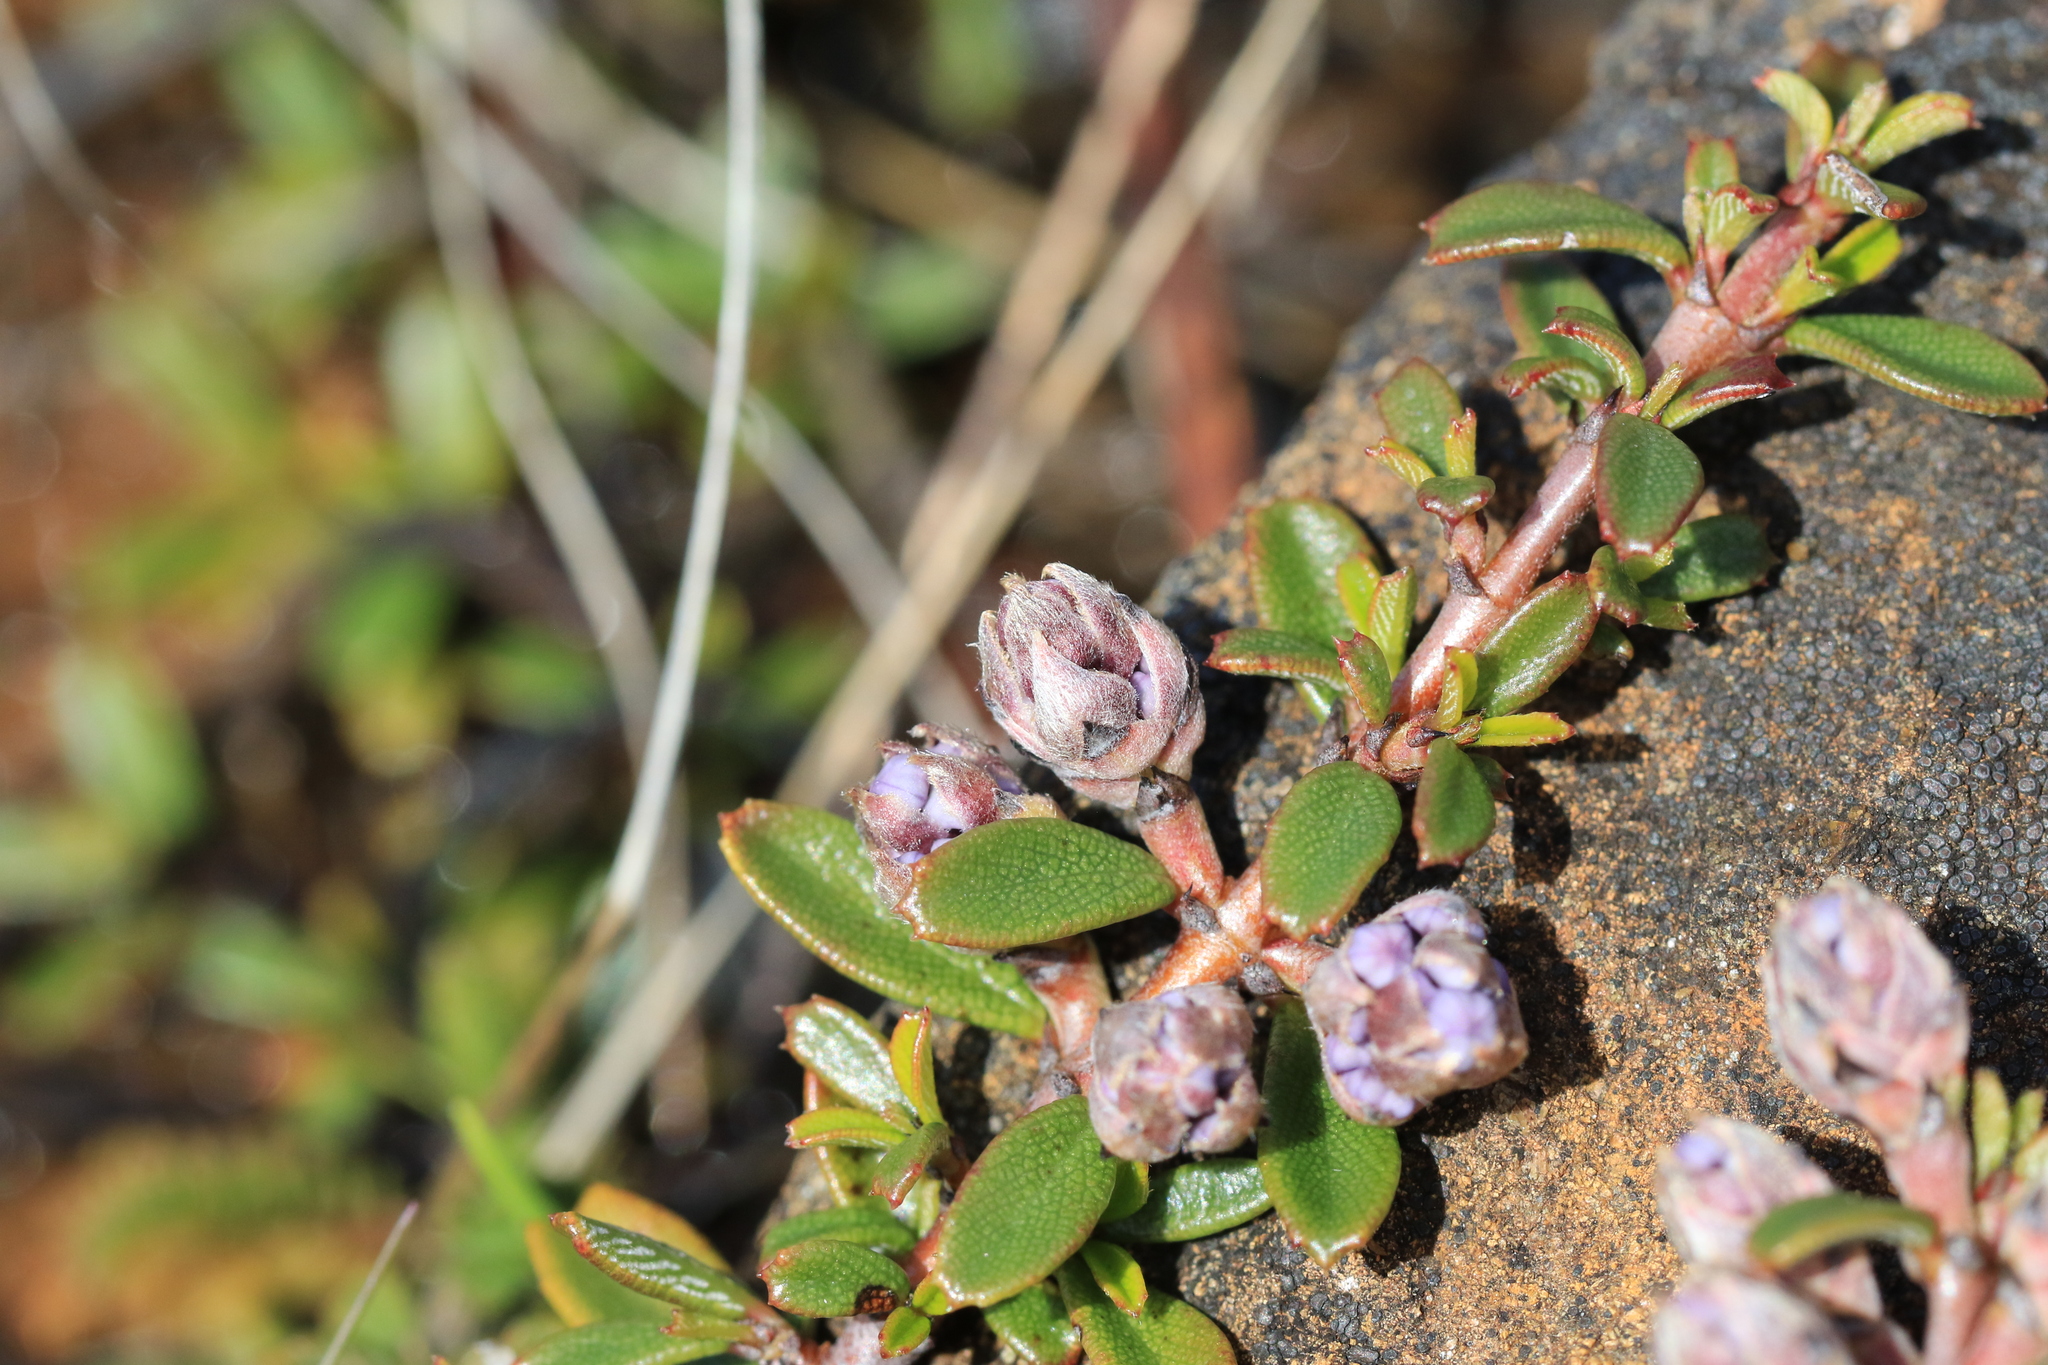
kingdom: Plantae
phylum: Tracheophyta
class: Magnoliopsida
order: Rosales
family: Rhamnaceae
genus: Ceanothus
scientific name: Ceanothus pumilus
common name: Siskiyou-mat
